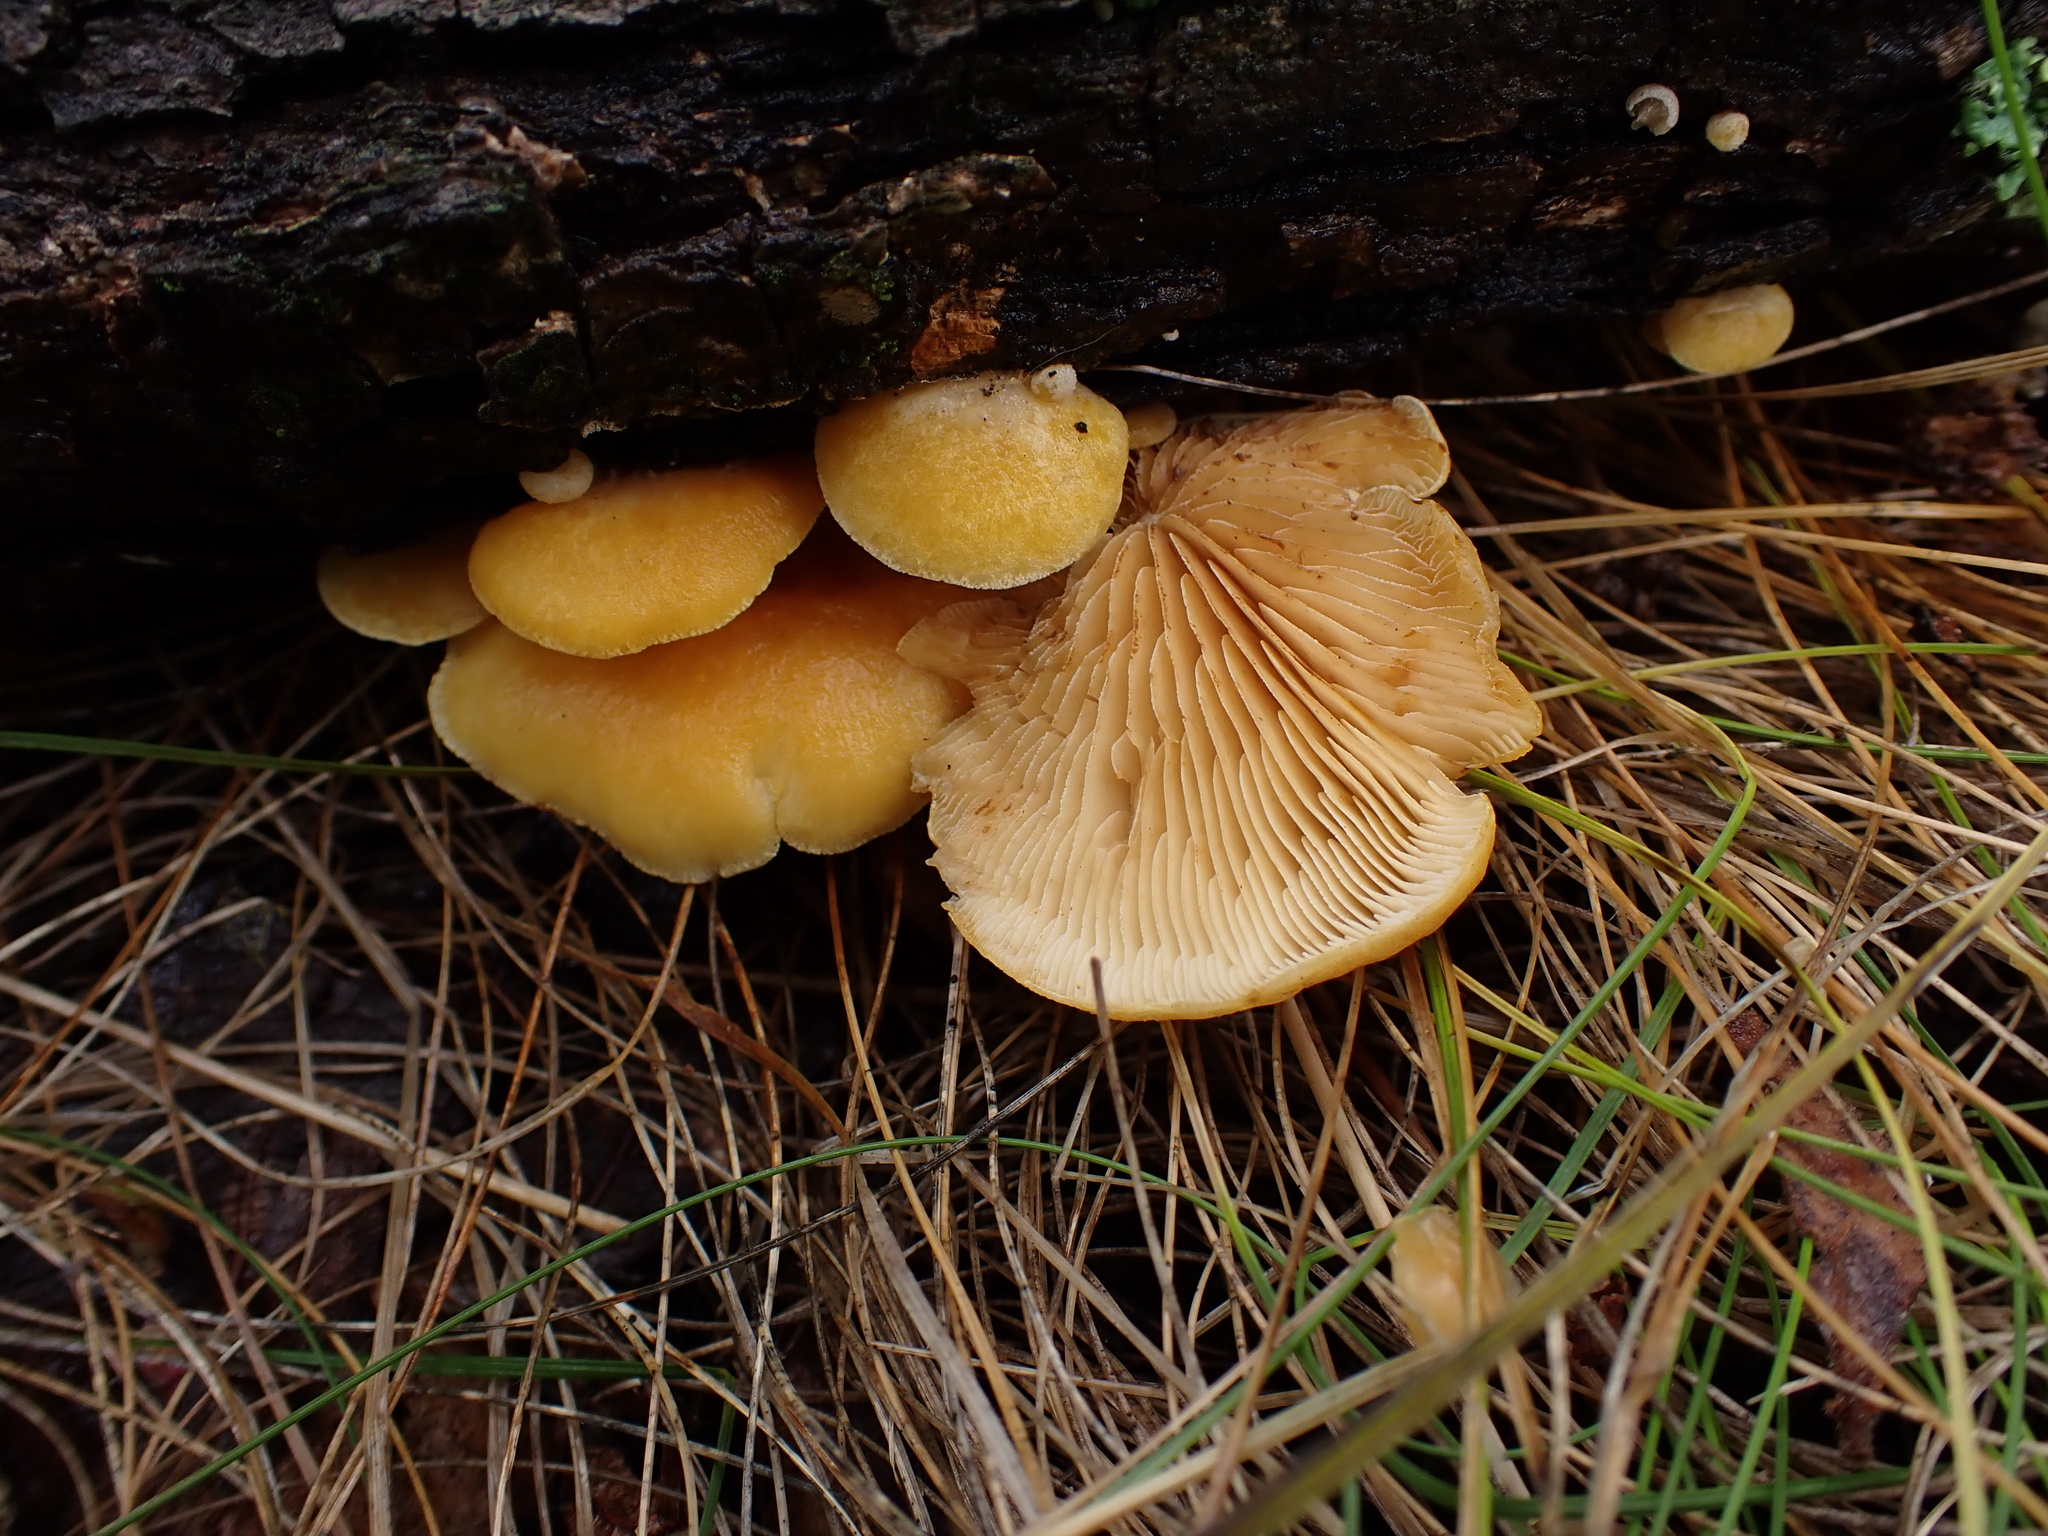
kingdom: Fungi
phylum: Basidiomycota
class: Agaricomycetes
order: Agaricales
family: Crepidotaceae
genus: Crepidotus
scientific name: Crepidotus croceotinctus
